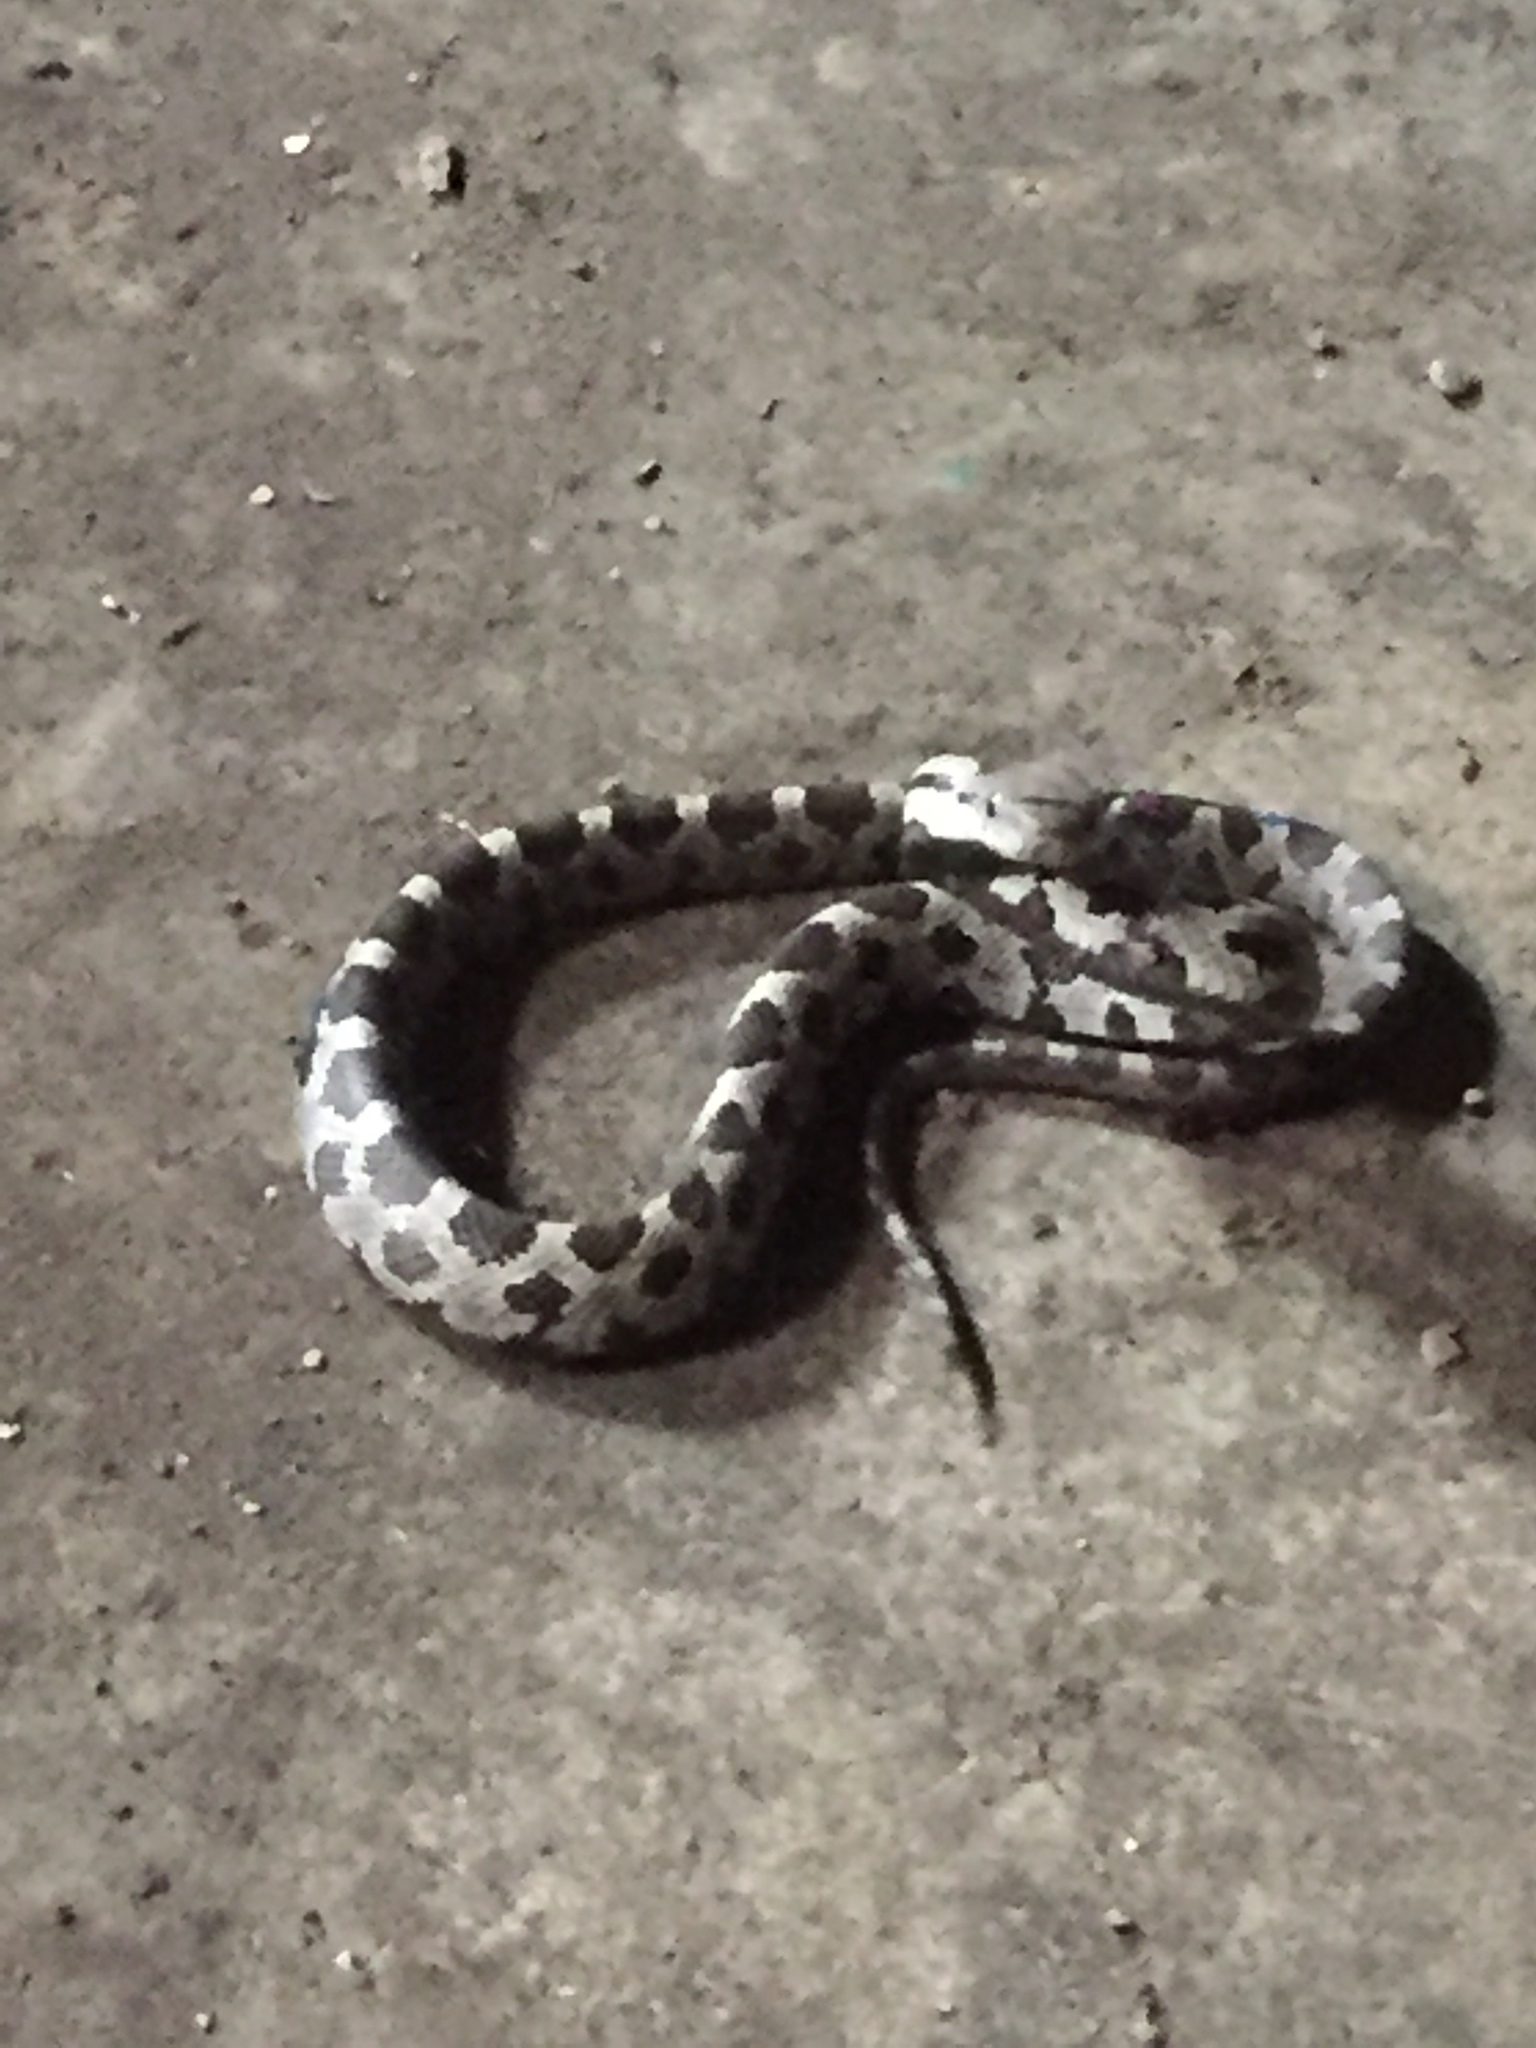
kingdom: Animalia
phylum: Chordata
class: Squamata
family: Colubridae
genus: Pantherophis
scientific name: Pantherophis spiloides
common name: Gray rat snake
